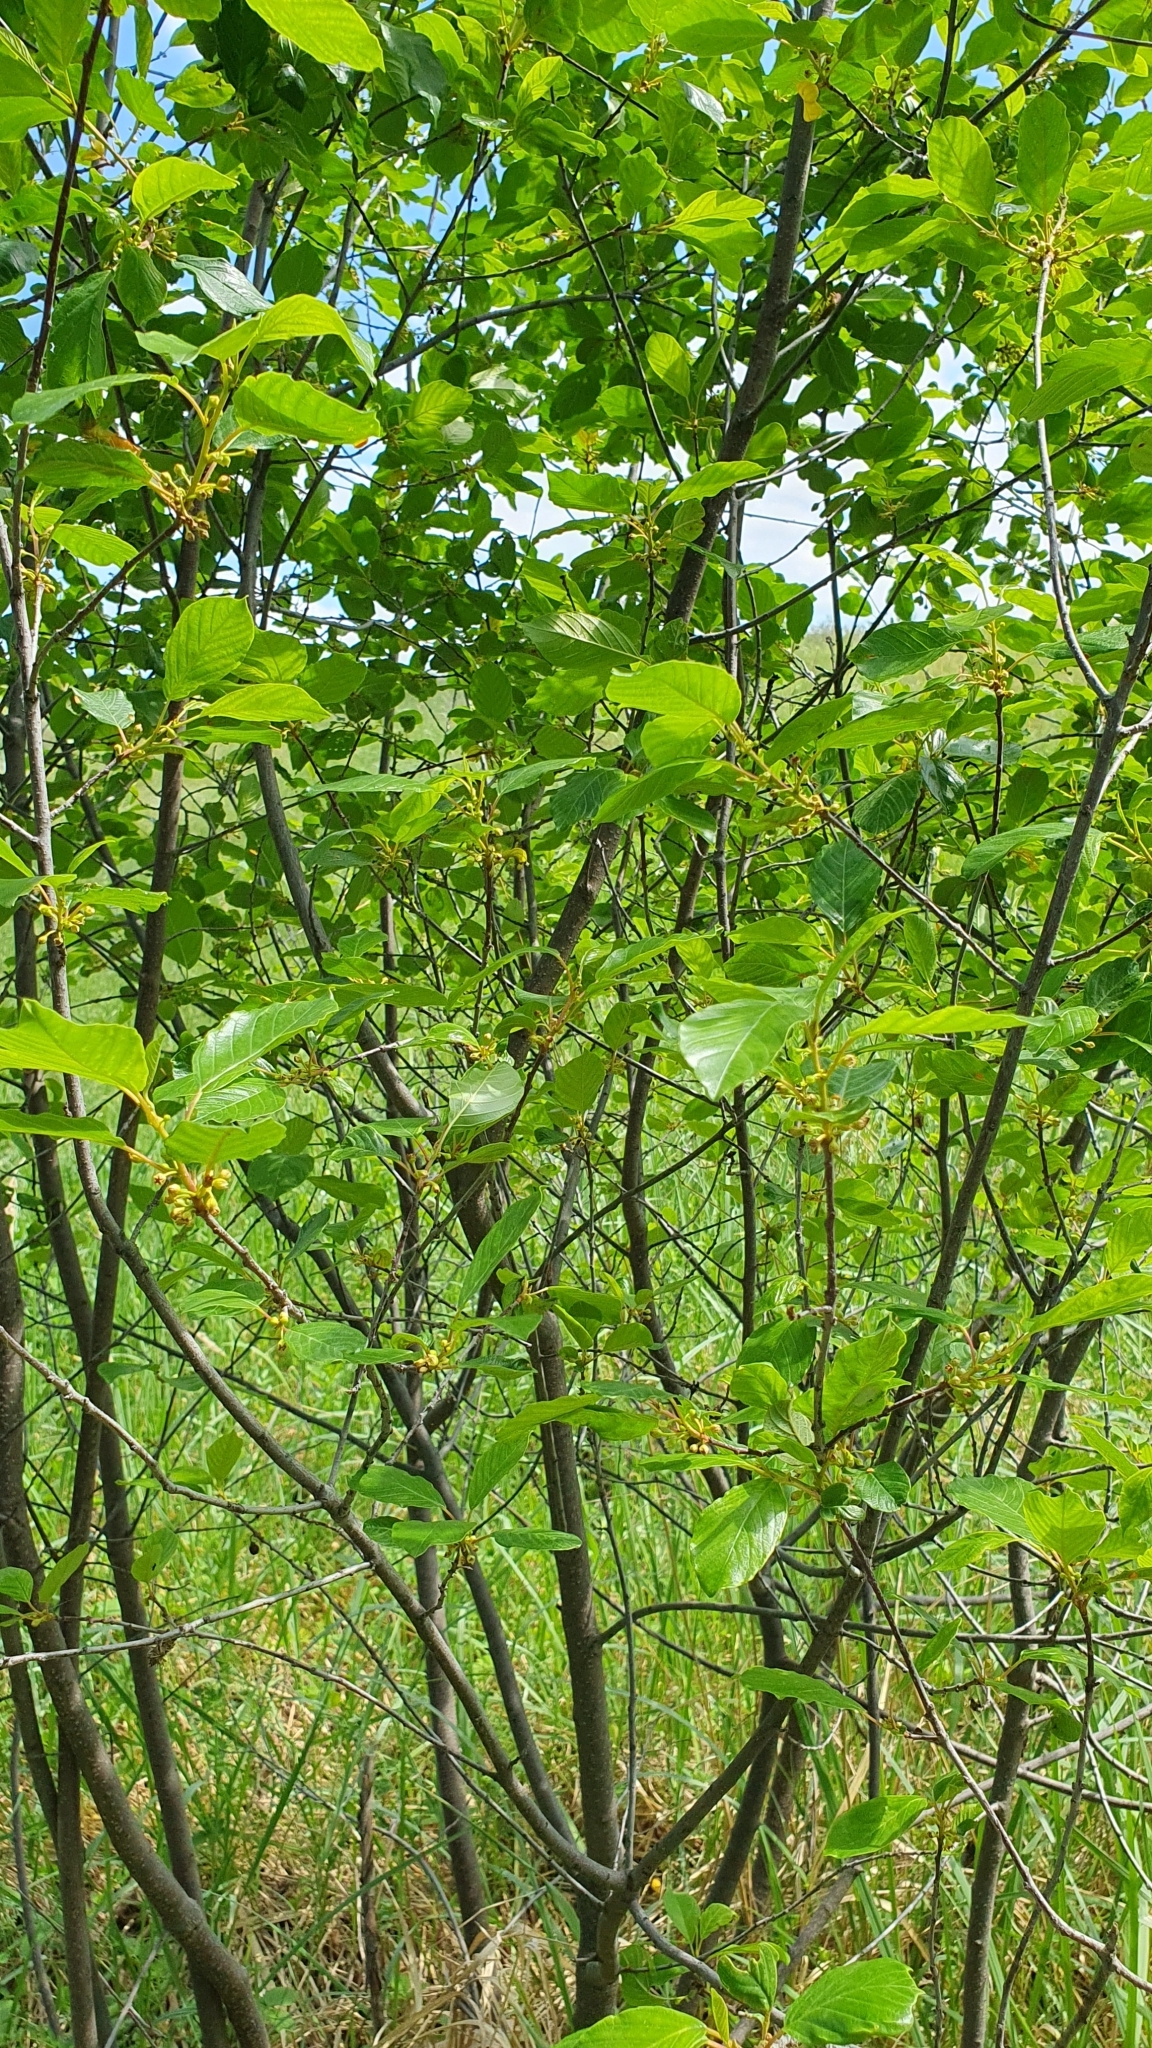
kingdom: Plantae
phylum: Tracheophyta
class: Magnoliopsida
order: Rosales
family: Rhamnaceae
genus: Frangula
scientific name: Frangula alnus
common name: Alder buckthorn
